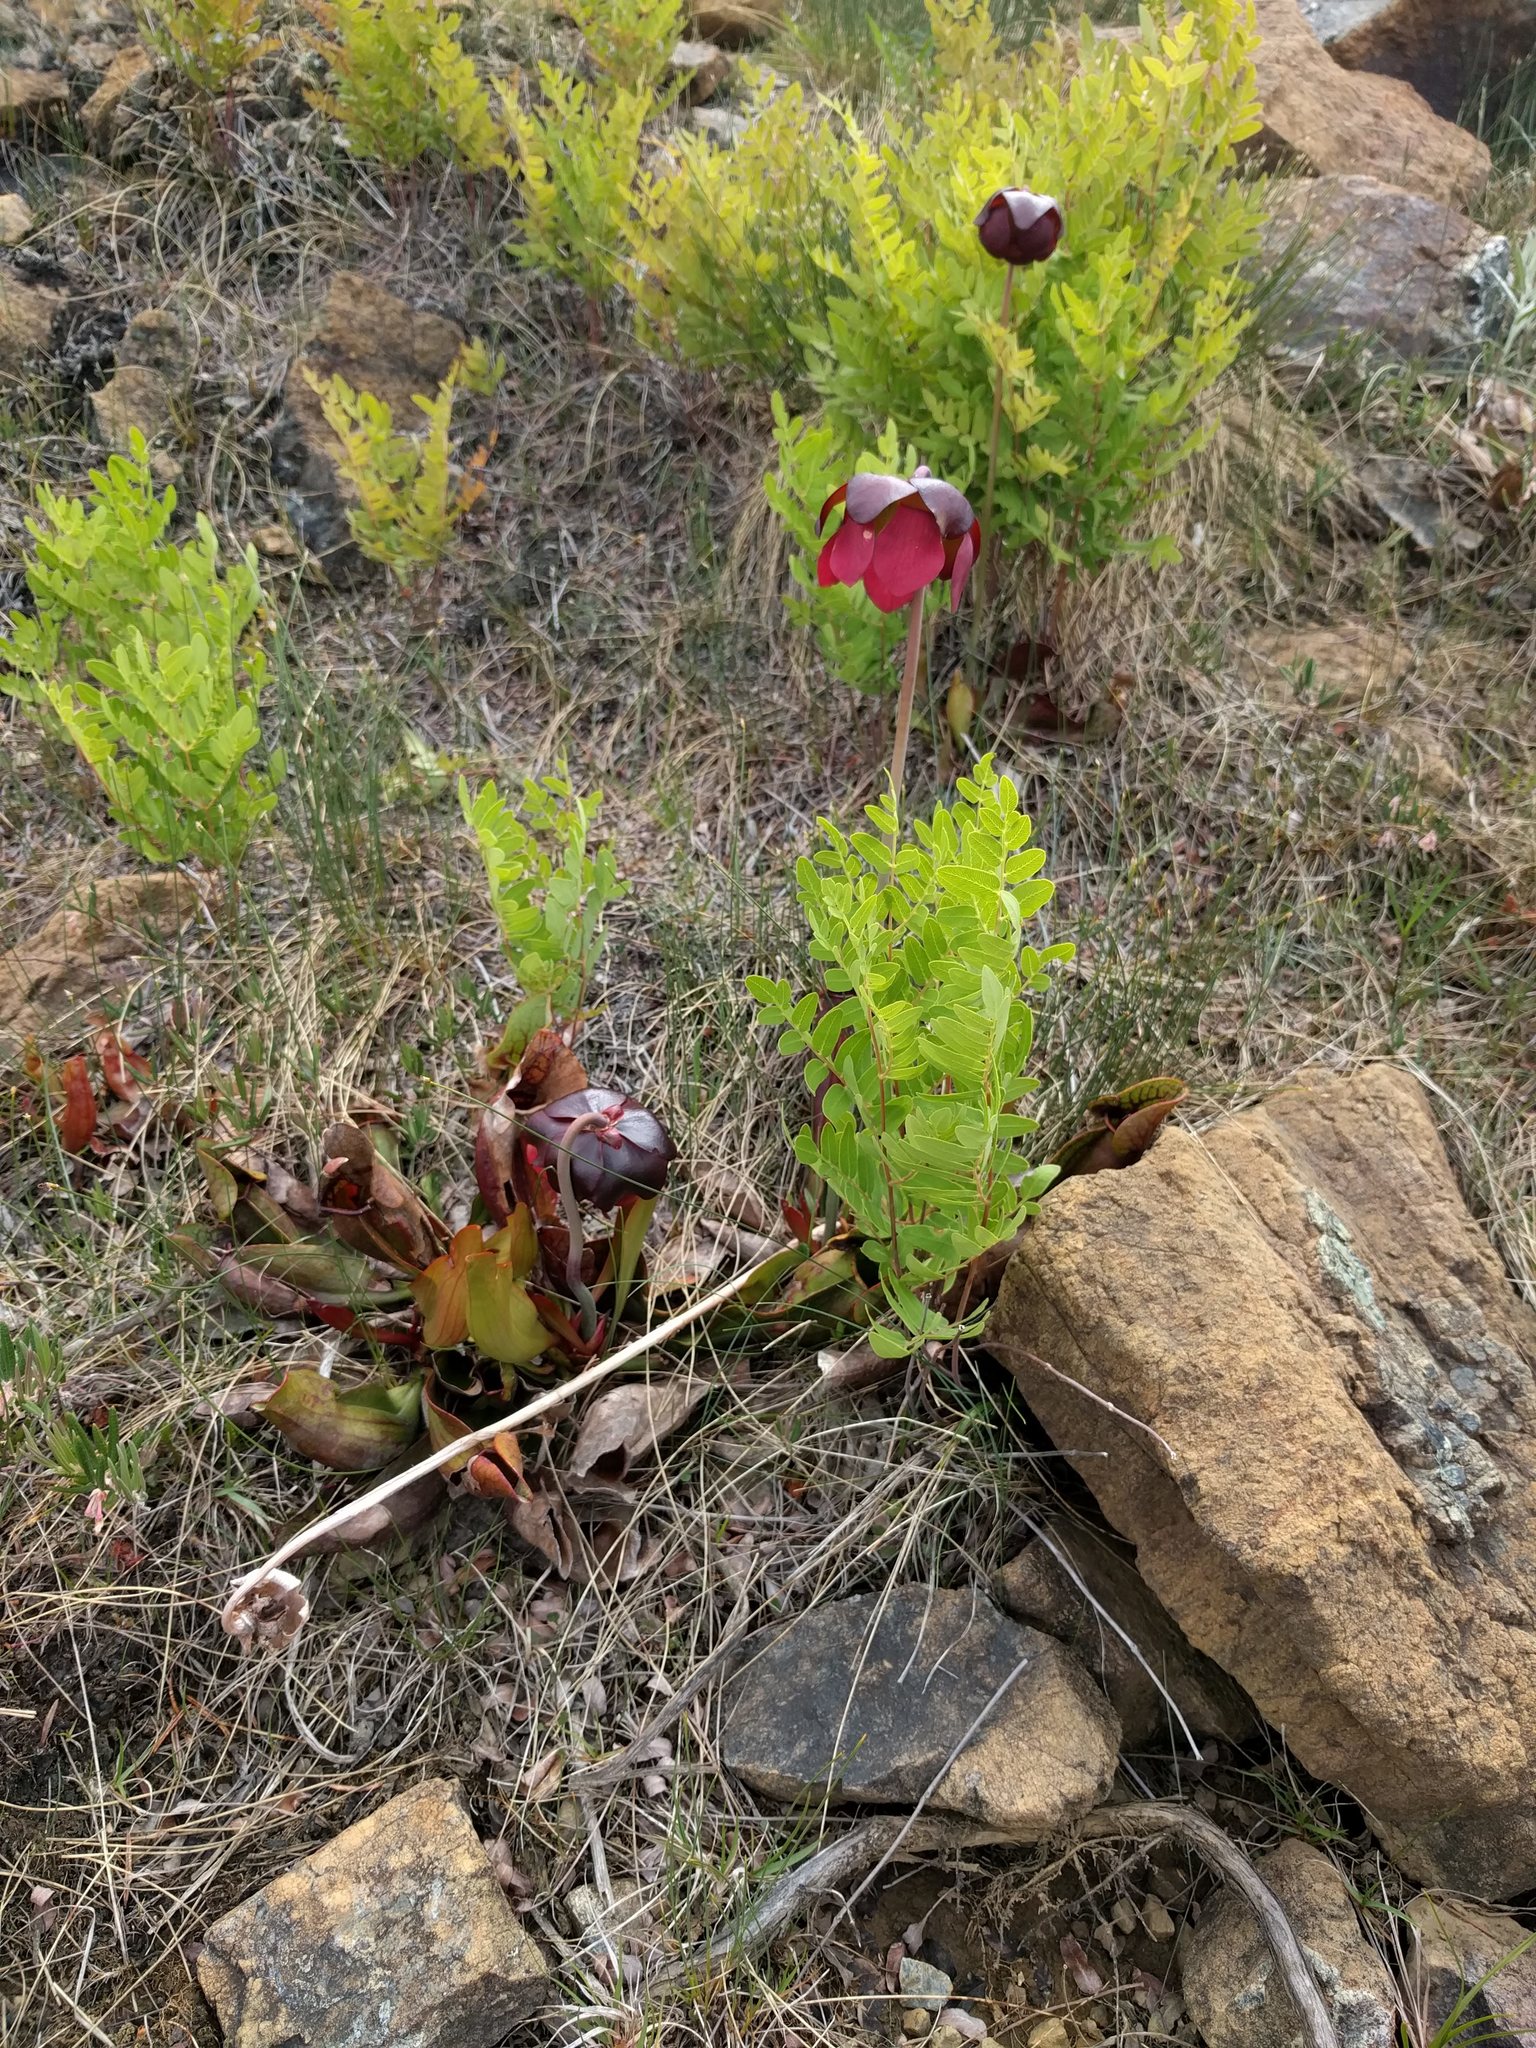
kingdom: Plantae
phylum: Tracheophyta
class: Magnoliopsida
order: Ericales
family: Sarraceniaceae
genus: Sarracenia
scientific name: Sarracenia purpurea
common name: Pitcherplant
